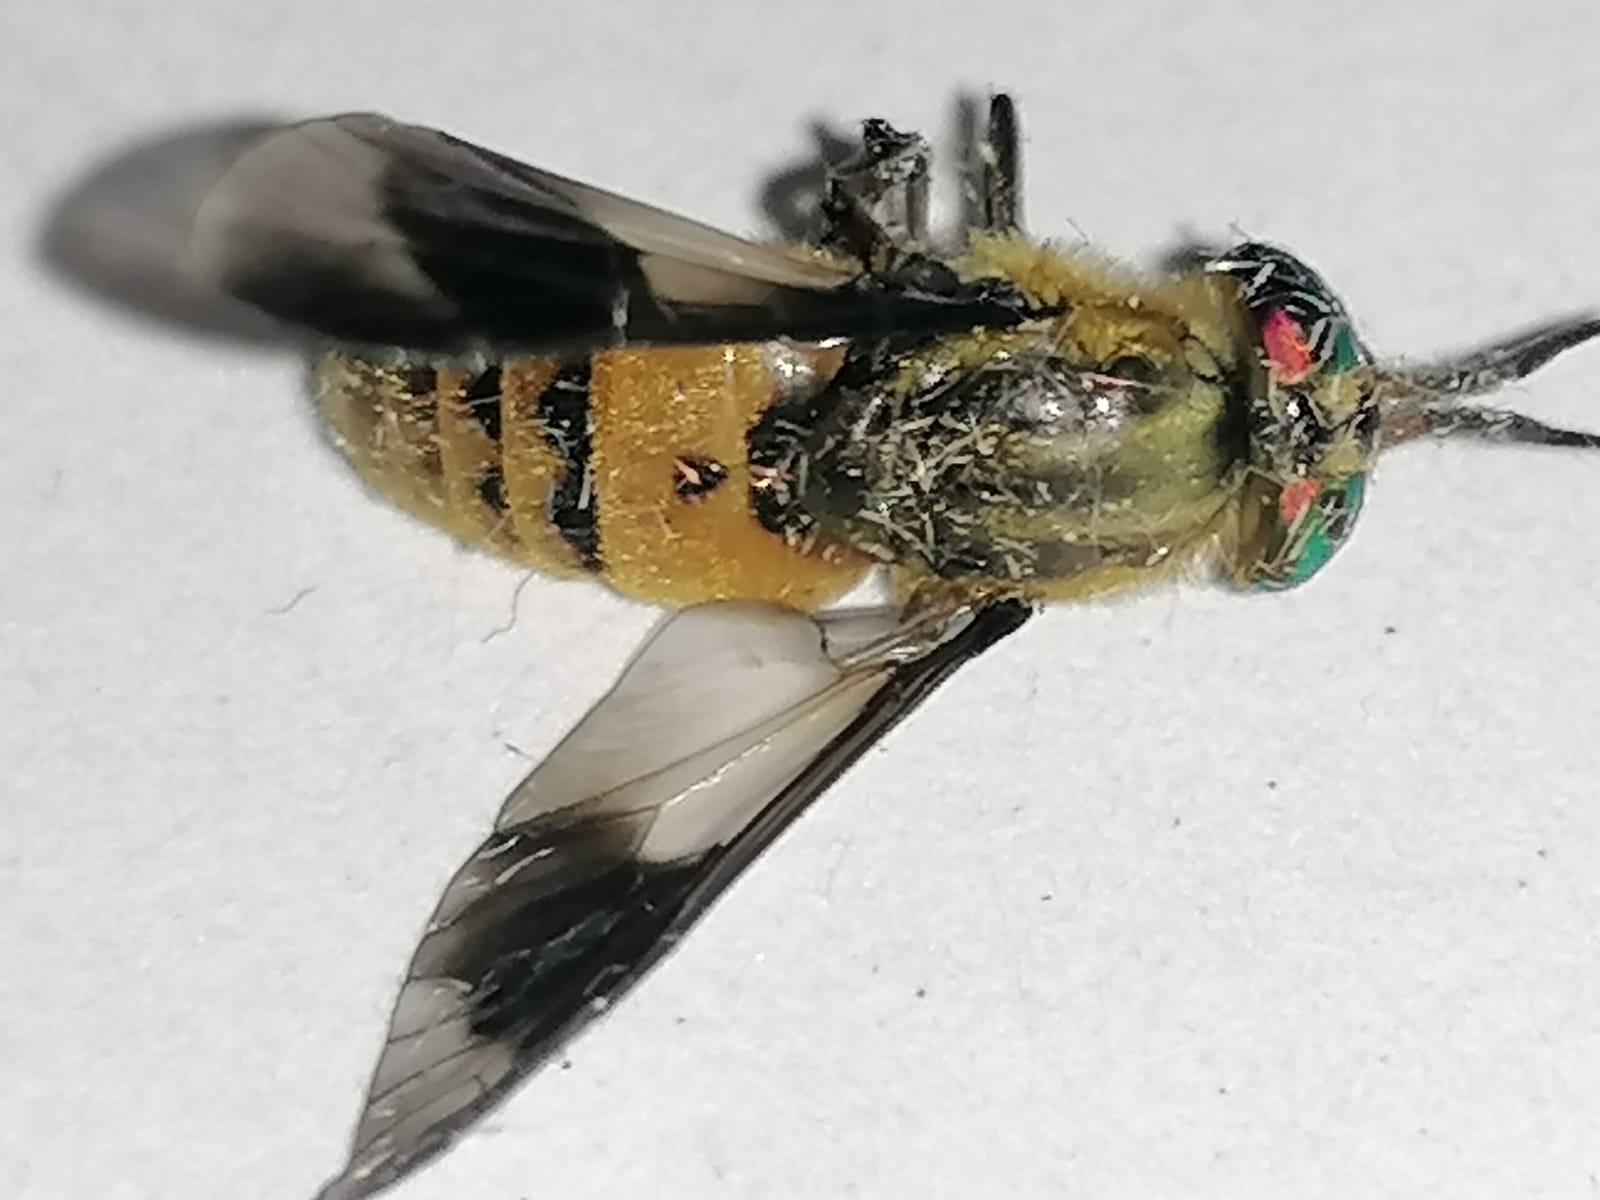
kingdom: Animalia
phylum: Arthropoda
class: Insecta
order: Diptera
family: Tabanidae
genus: Chrysops
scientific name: Chrysops viduatus
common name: Square-spot deerfly
